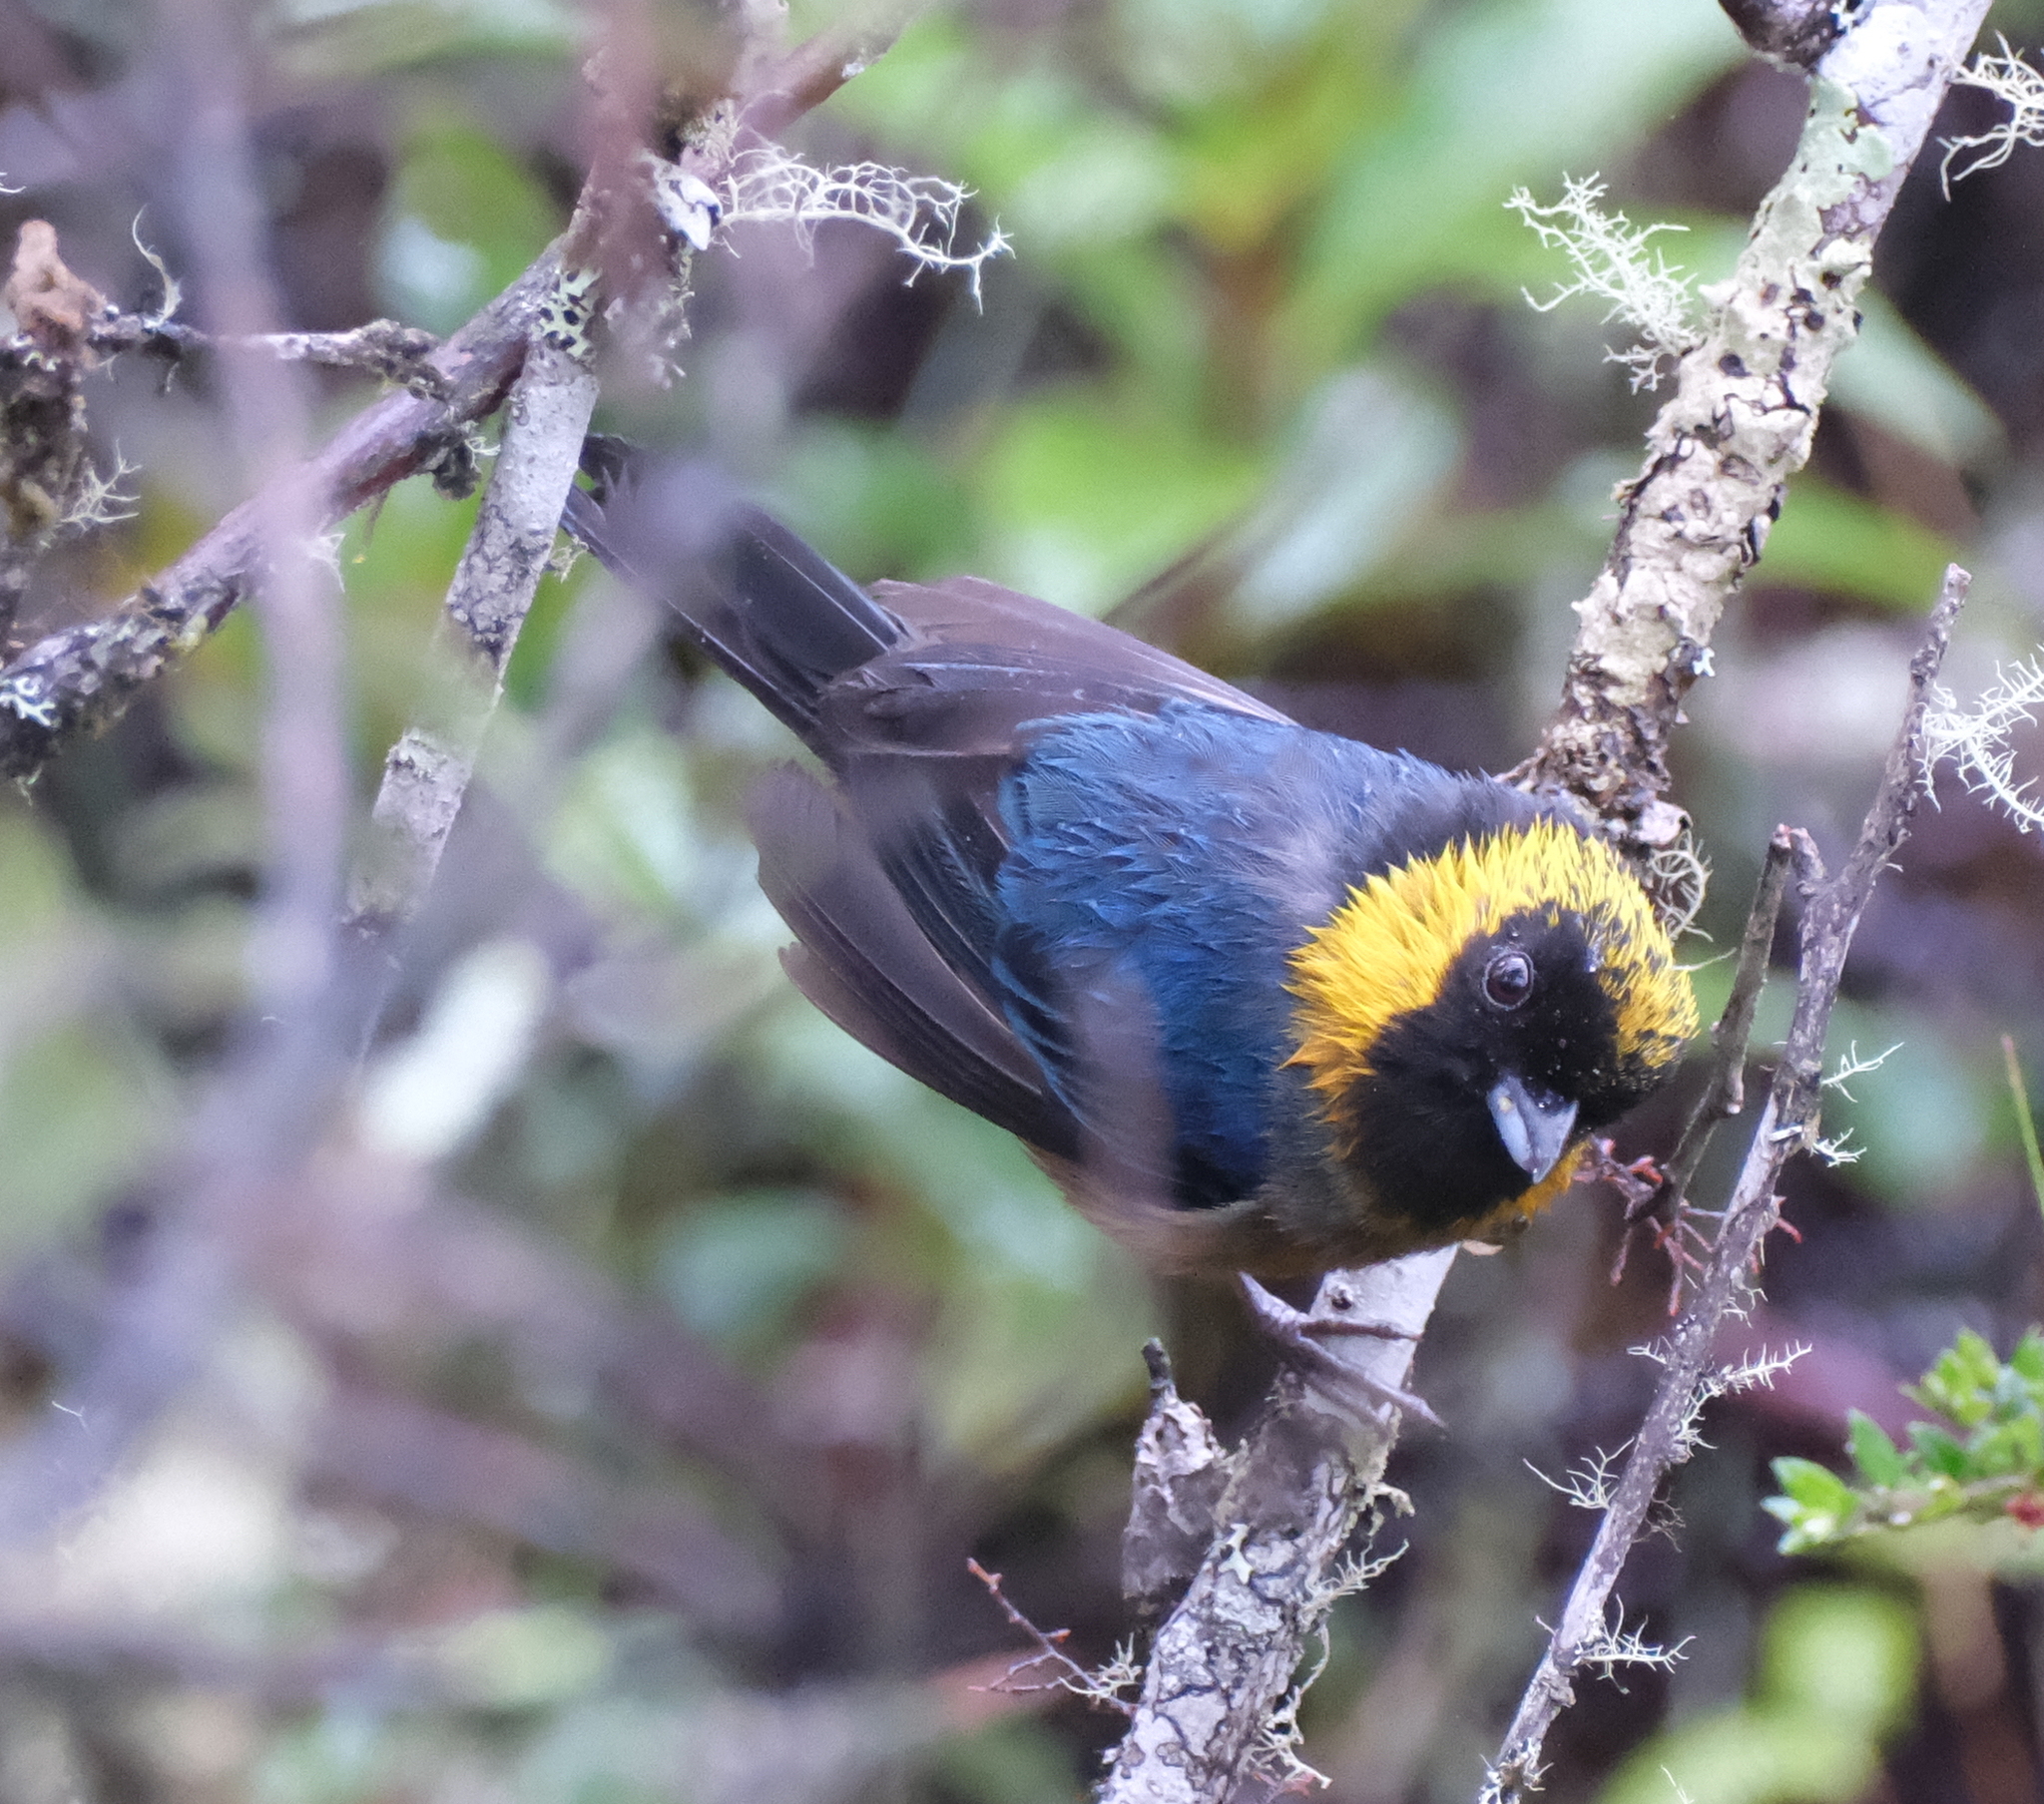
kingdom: Animalia
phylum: Chordata
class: Aves
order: Passeriformes
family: Thraupidae
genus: Iridosornis
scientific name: Iridosornis jelskii
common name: Golden-collared tanager
